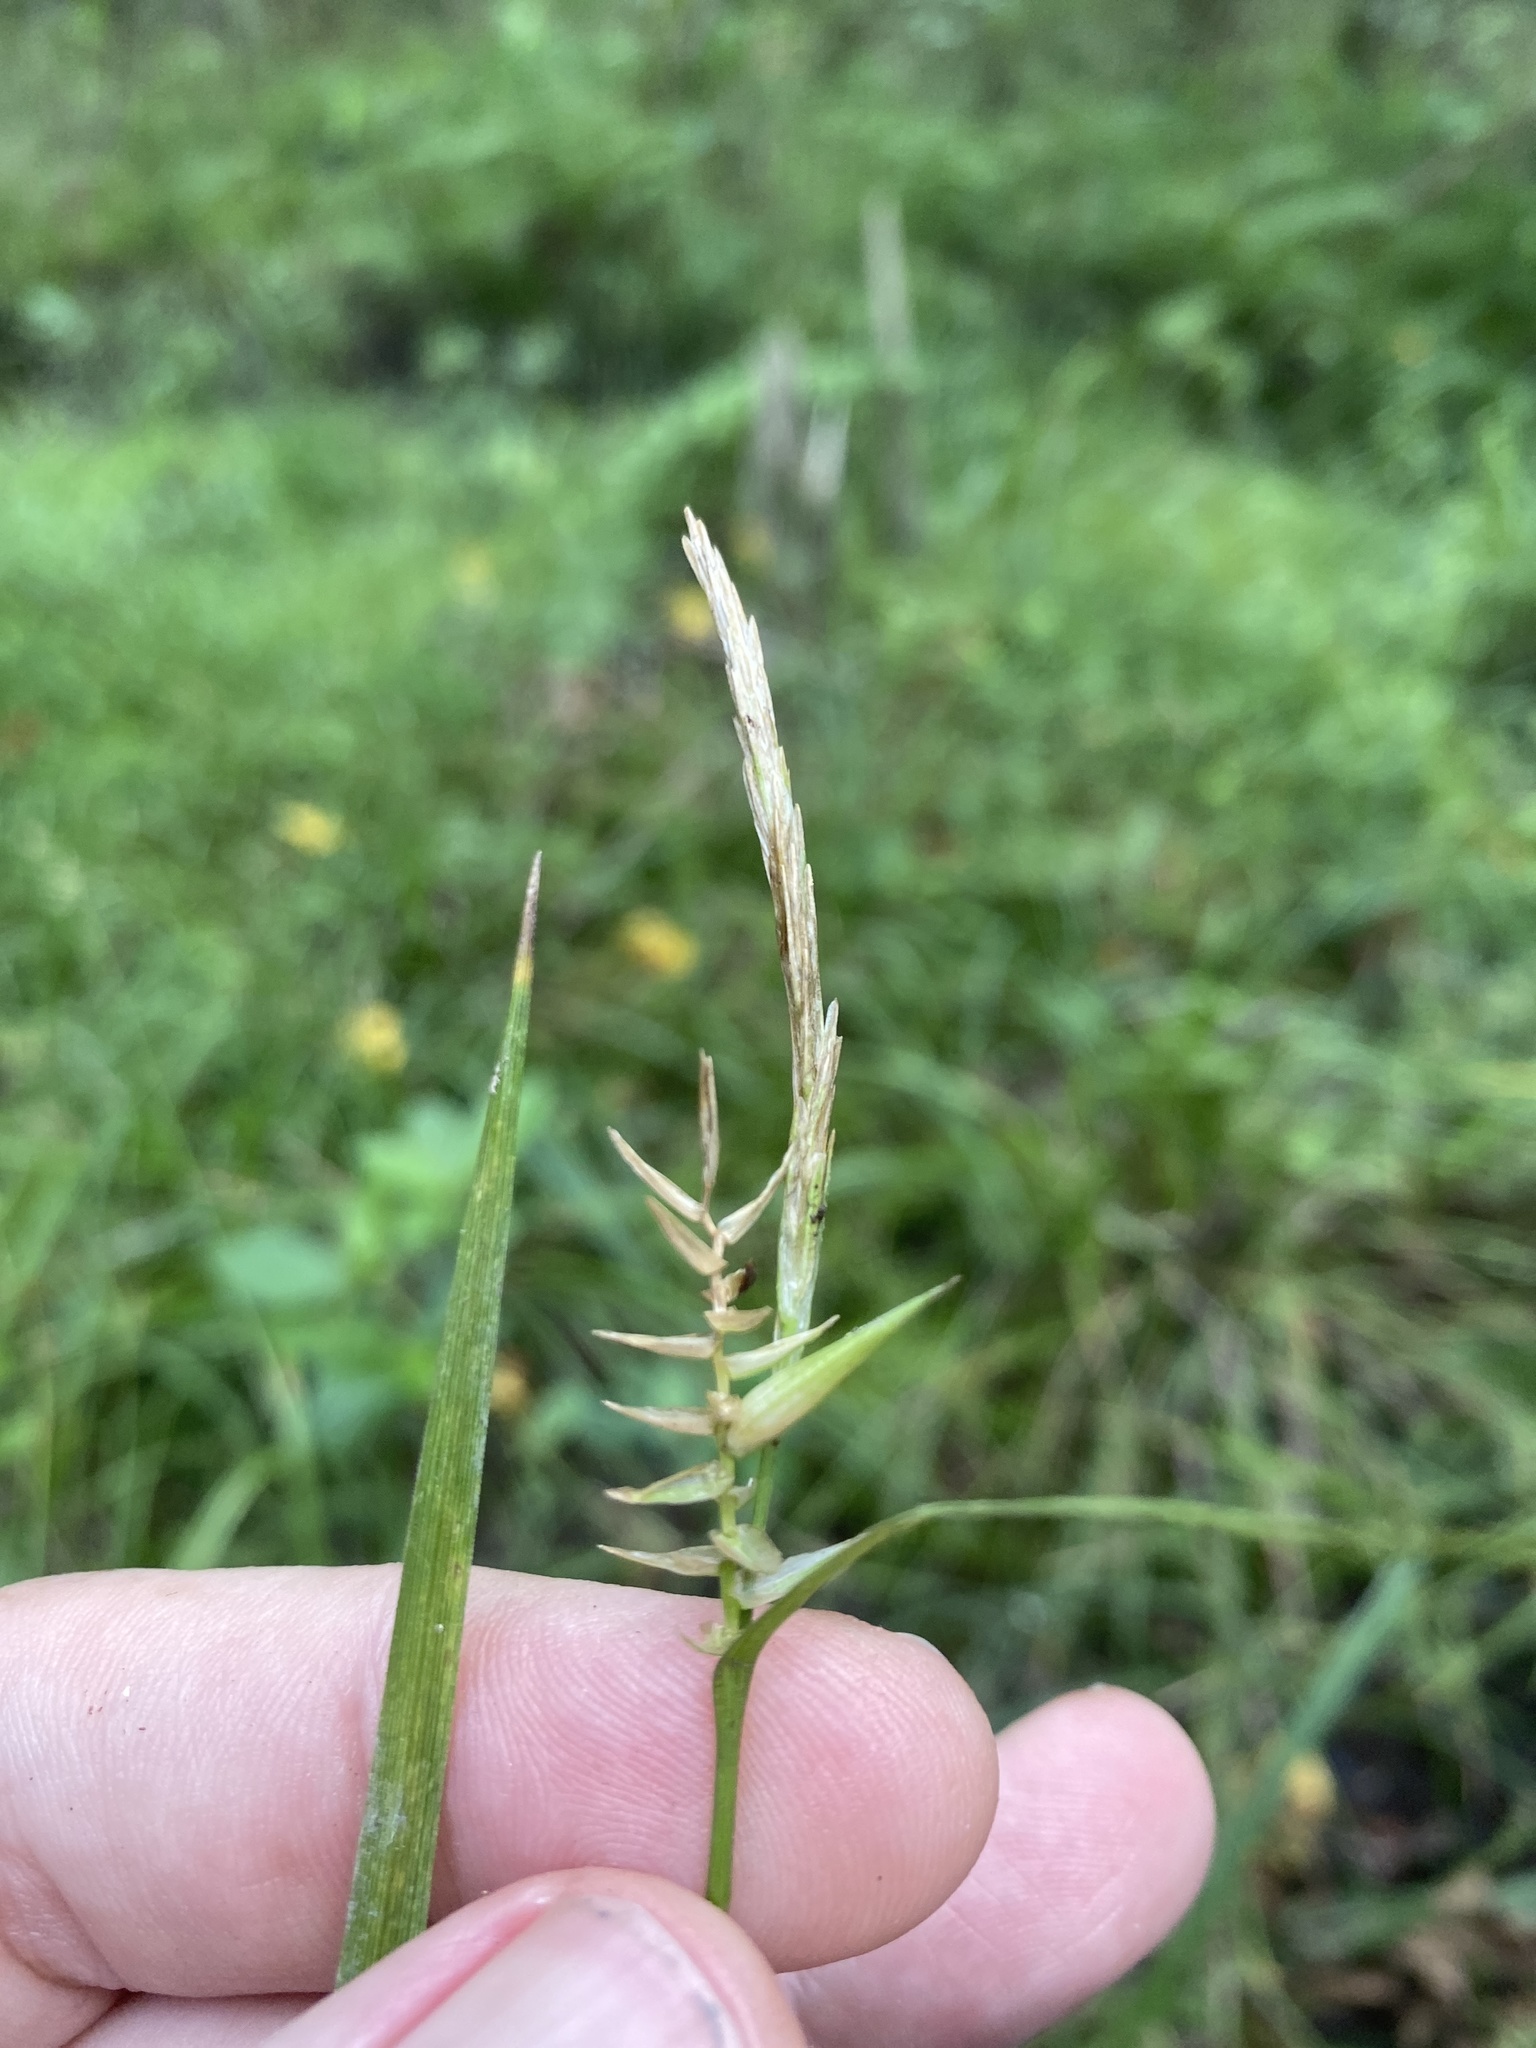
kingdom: Plantae
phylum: Tracheophyta
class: Liliopsida
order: Poales
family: Cyperaceae
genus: Carex
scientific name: Carex lonchocarpa
